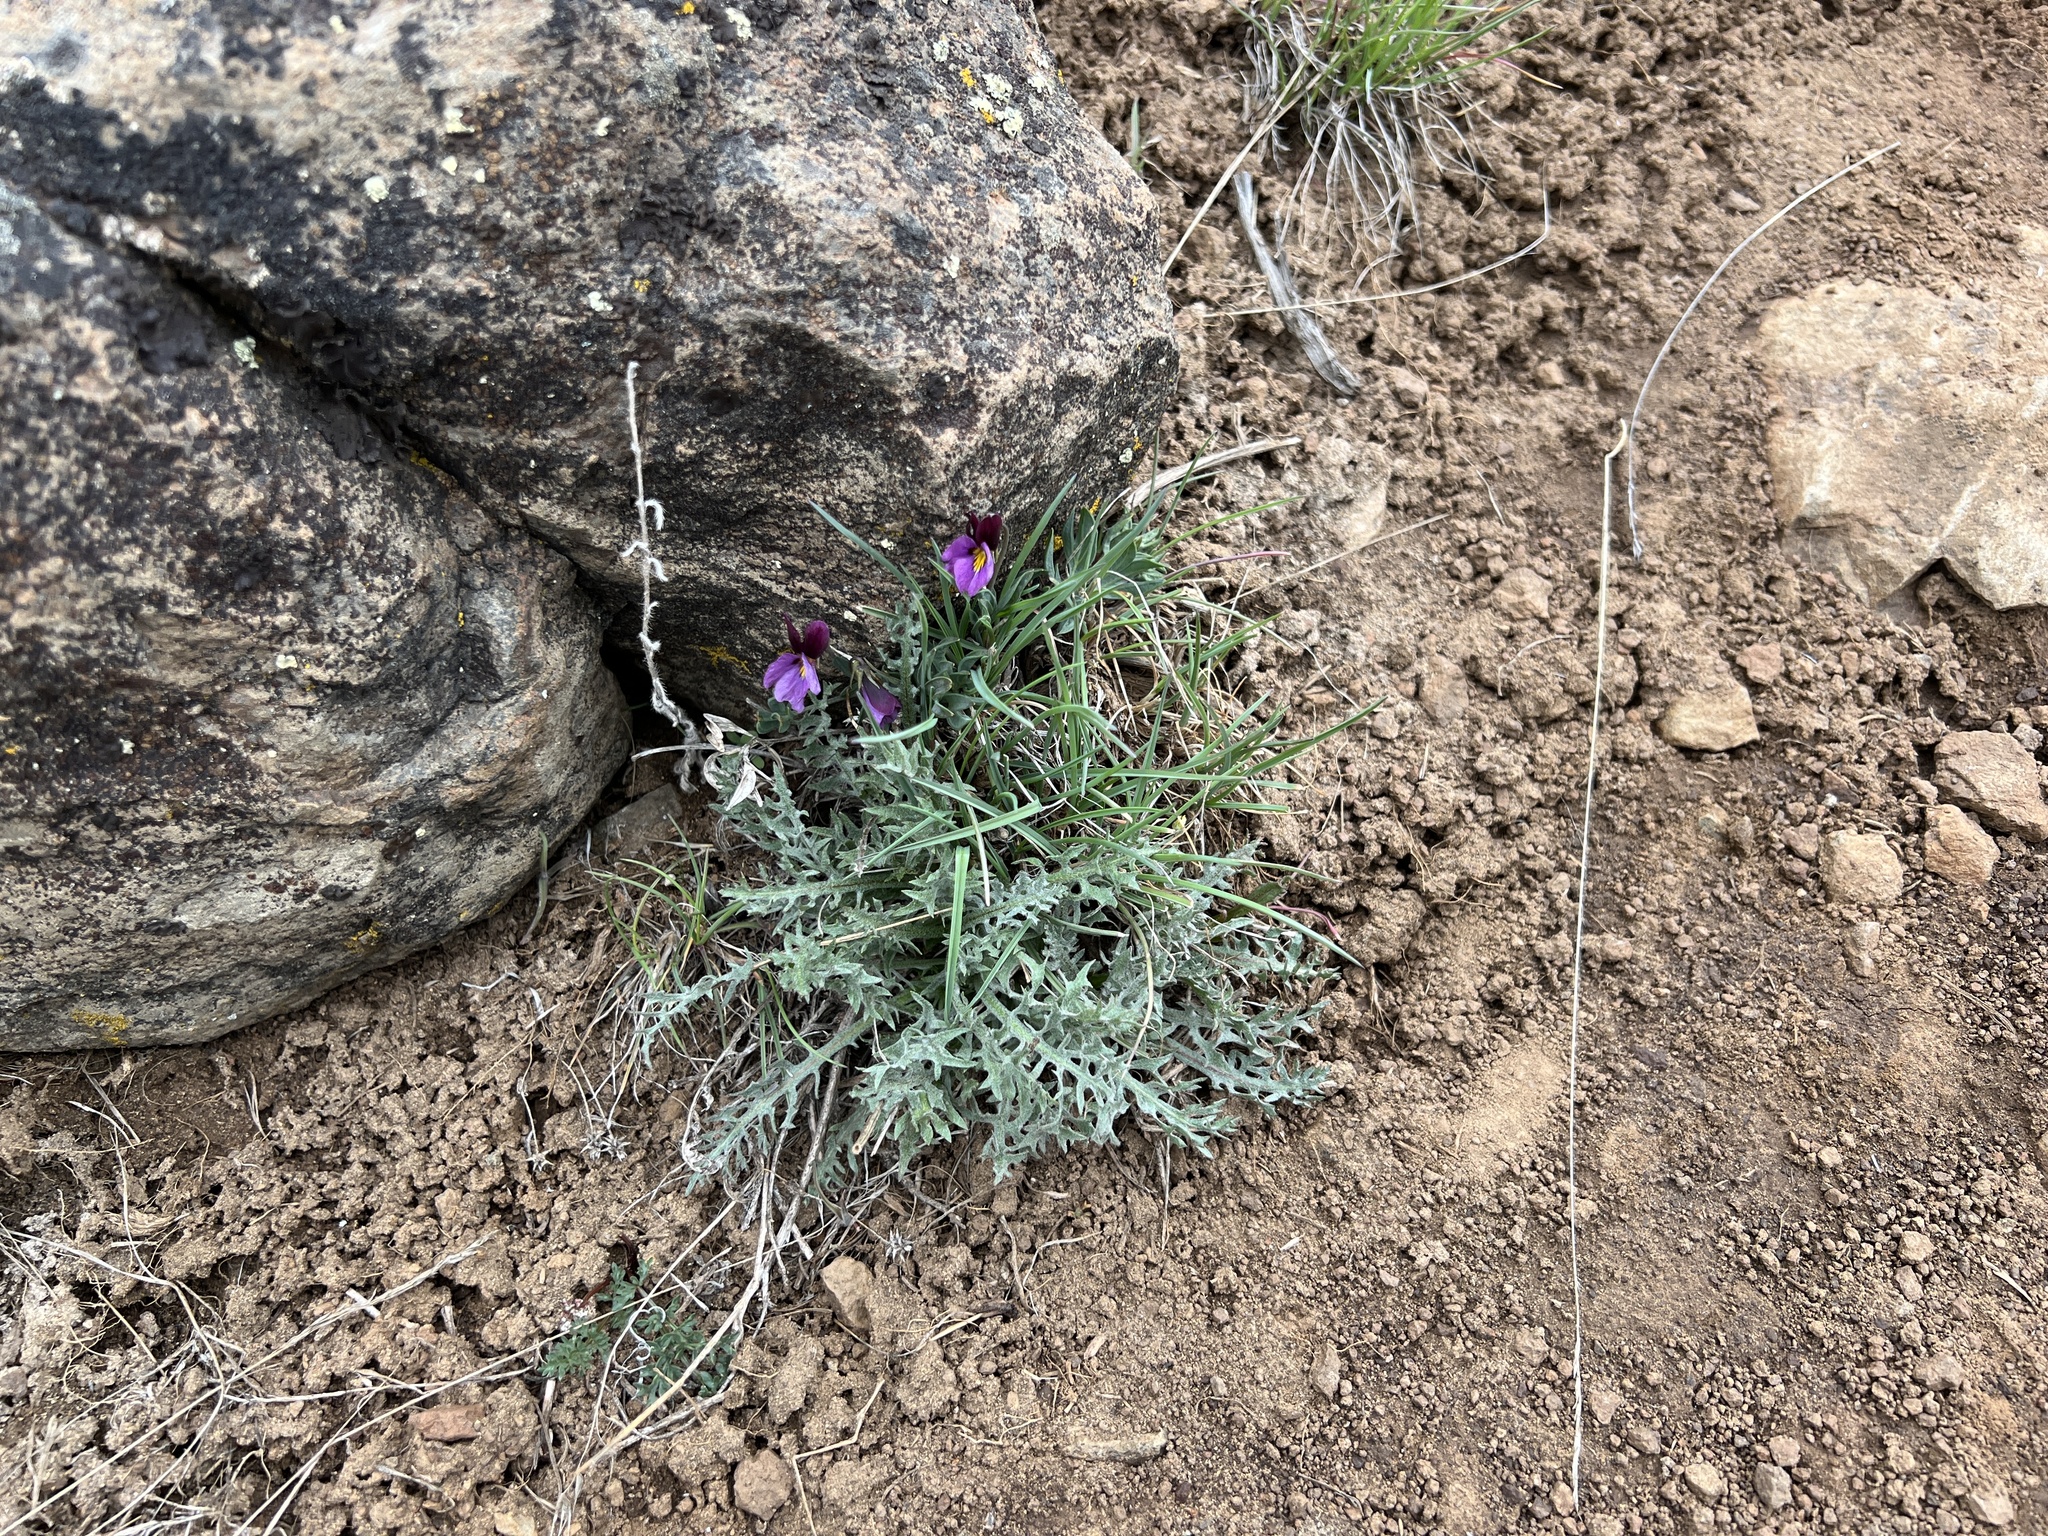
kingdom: Plantae
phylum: Tracheophyta
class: Magnoliopsida
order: Malpighiales
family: Violaceae
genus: Viola
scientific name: Viola trinervata
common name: Sagebrush violet
